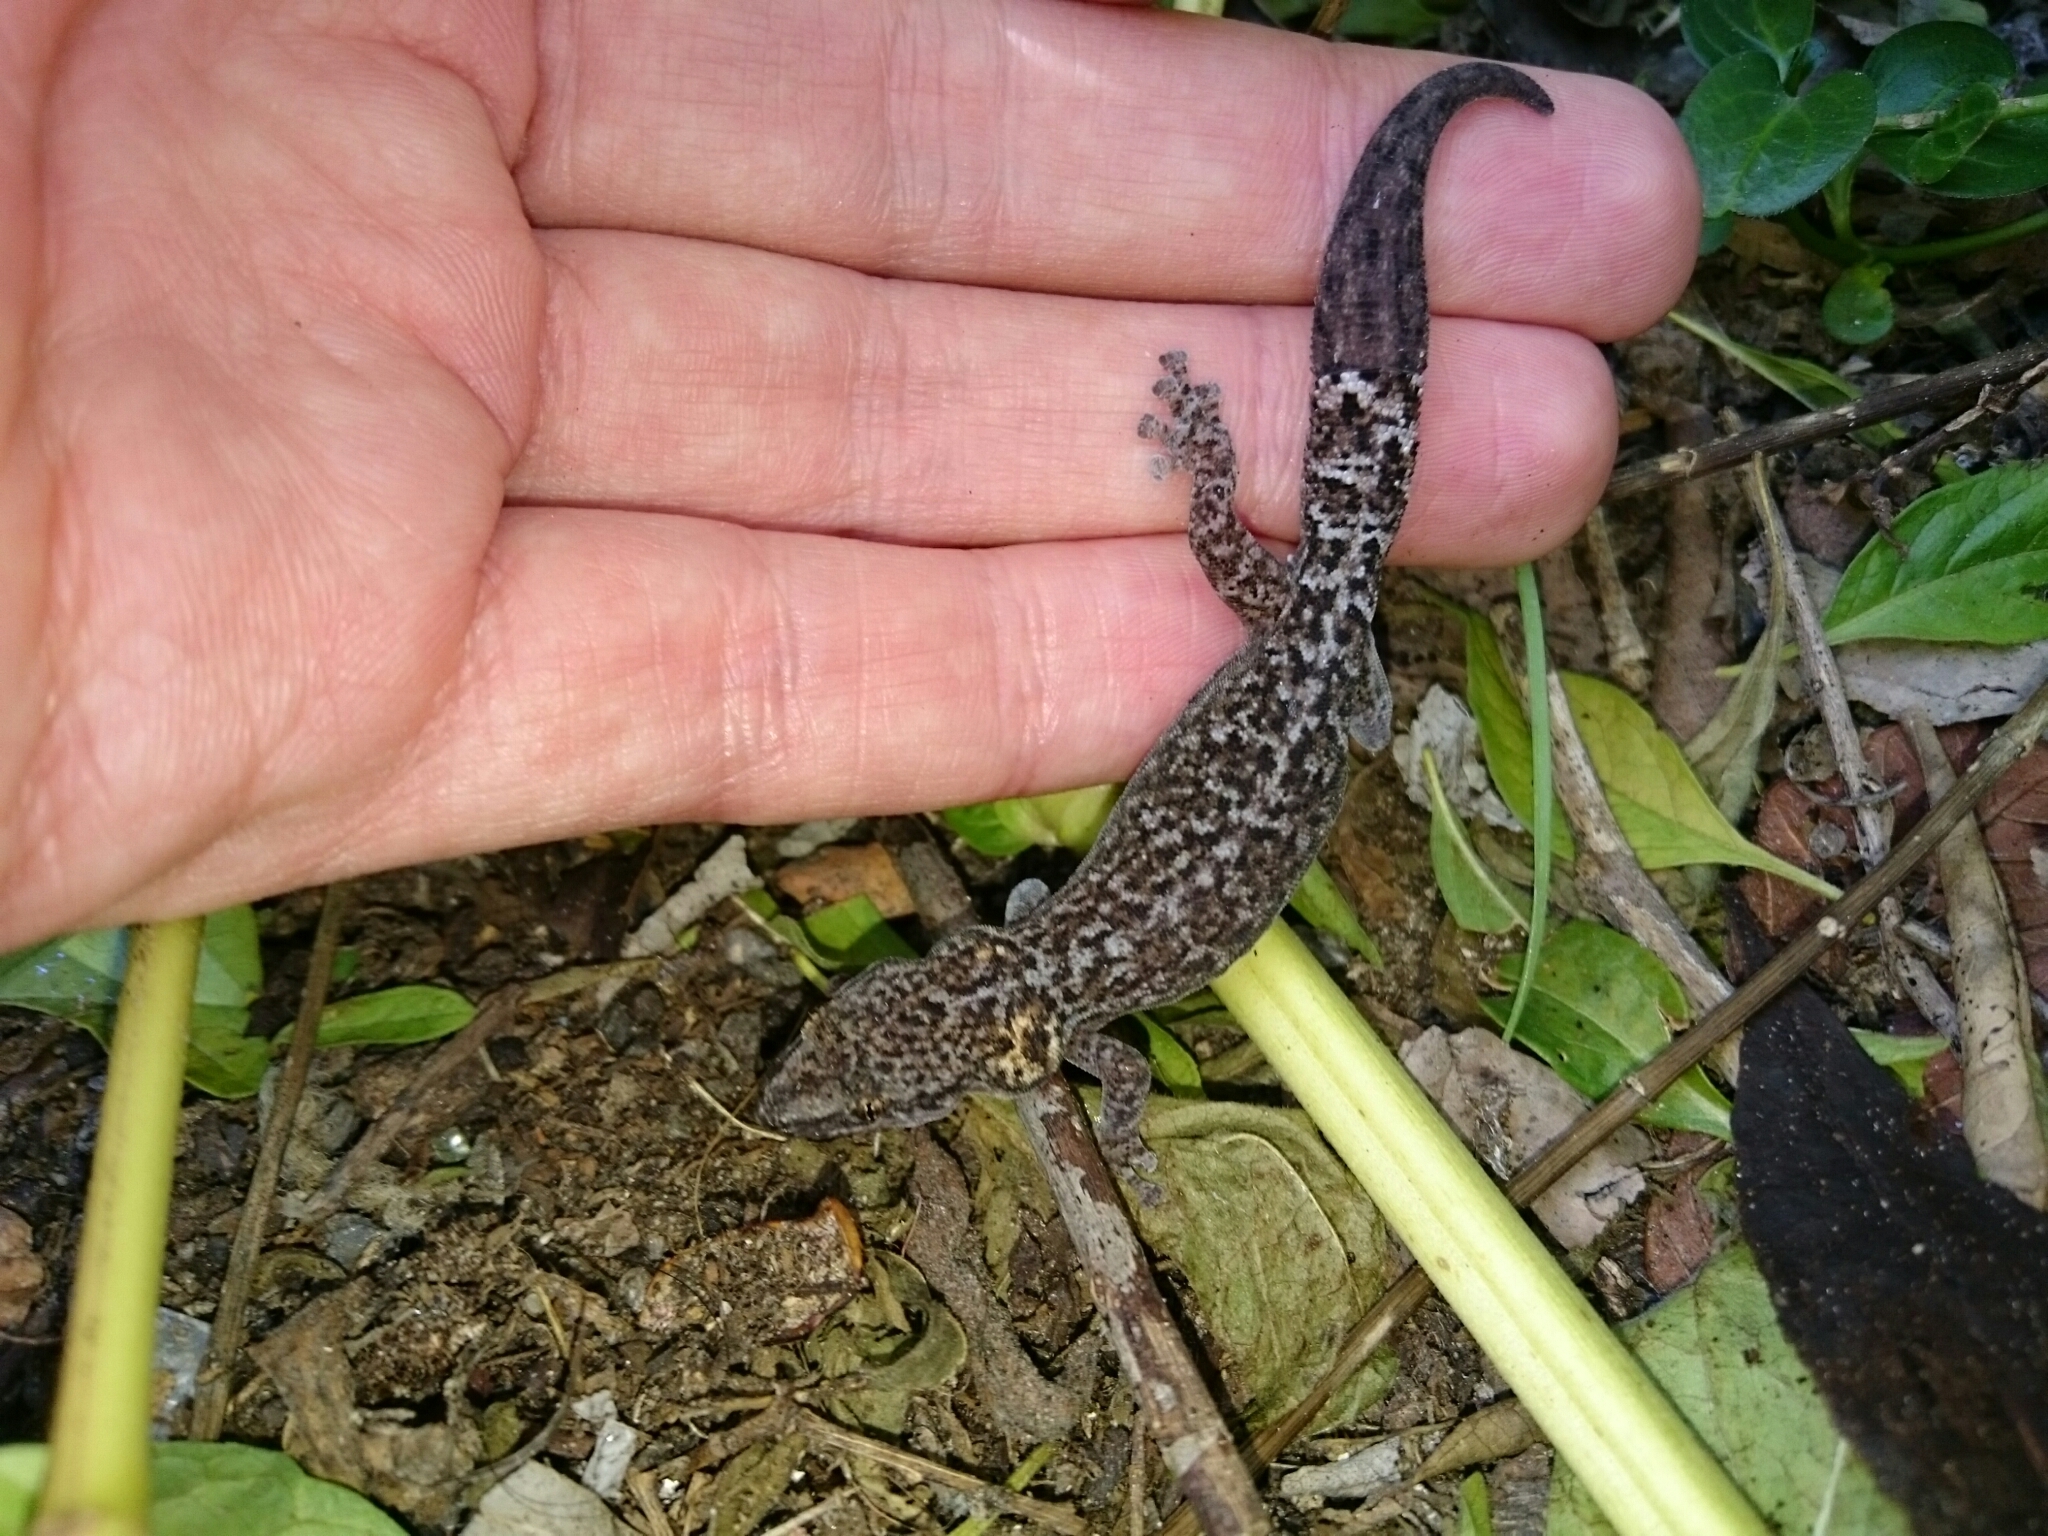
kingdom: Animalia
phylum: Chordata
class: Squamata
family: Gekkonidae
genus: Afrogecko
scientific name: Afrogecko porphyreus
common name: Marbled leaf-toed gecko
